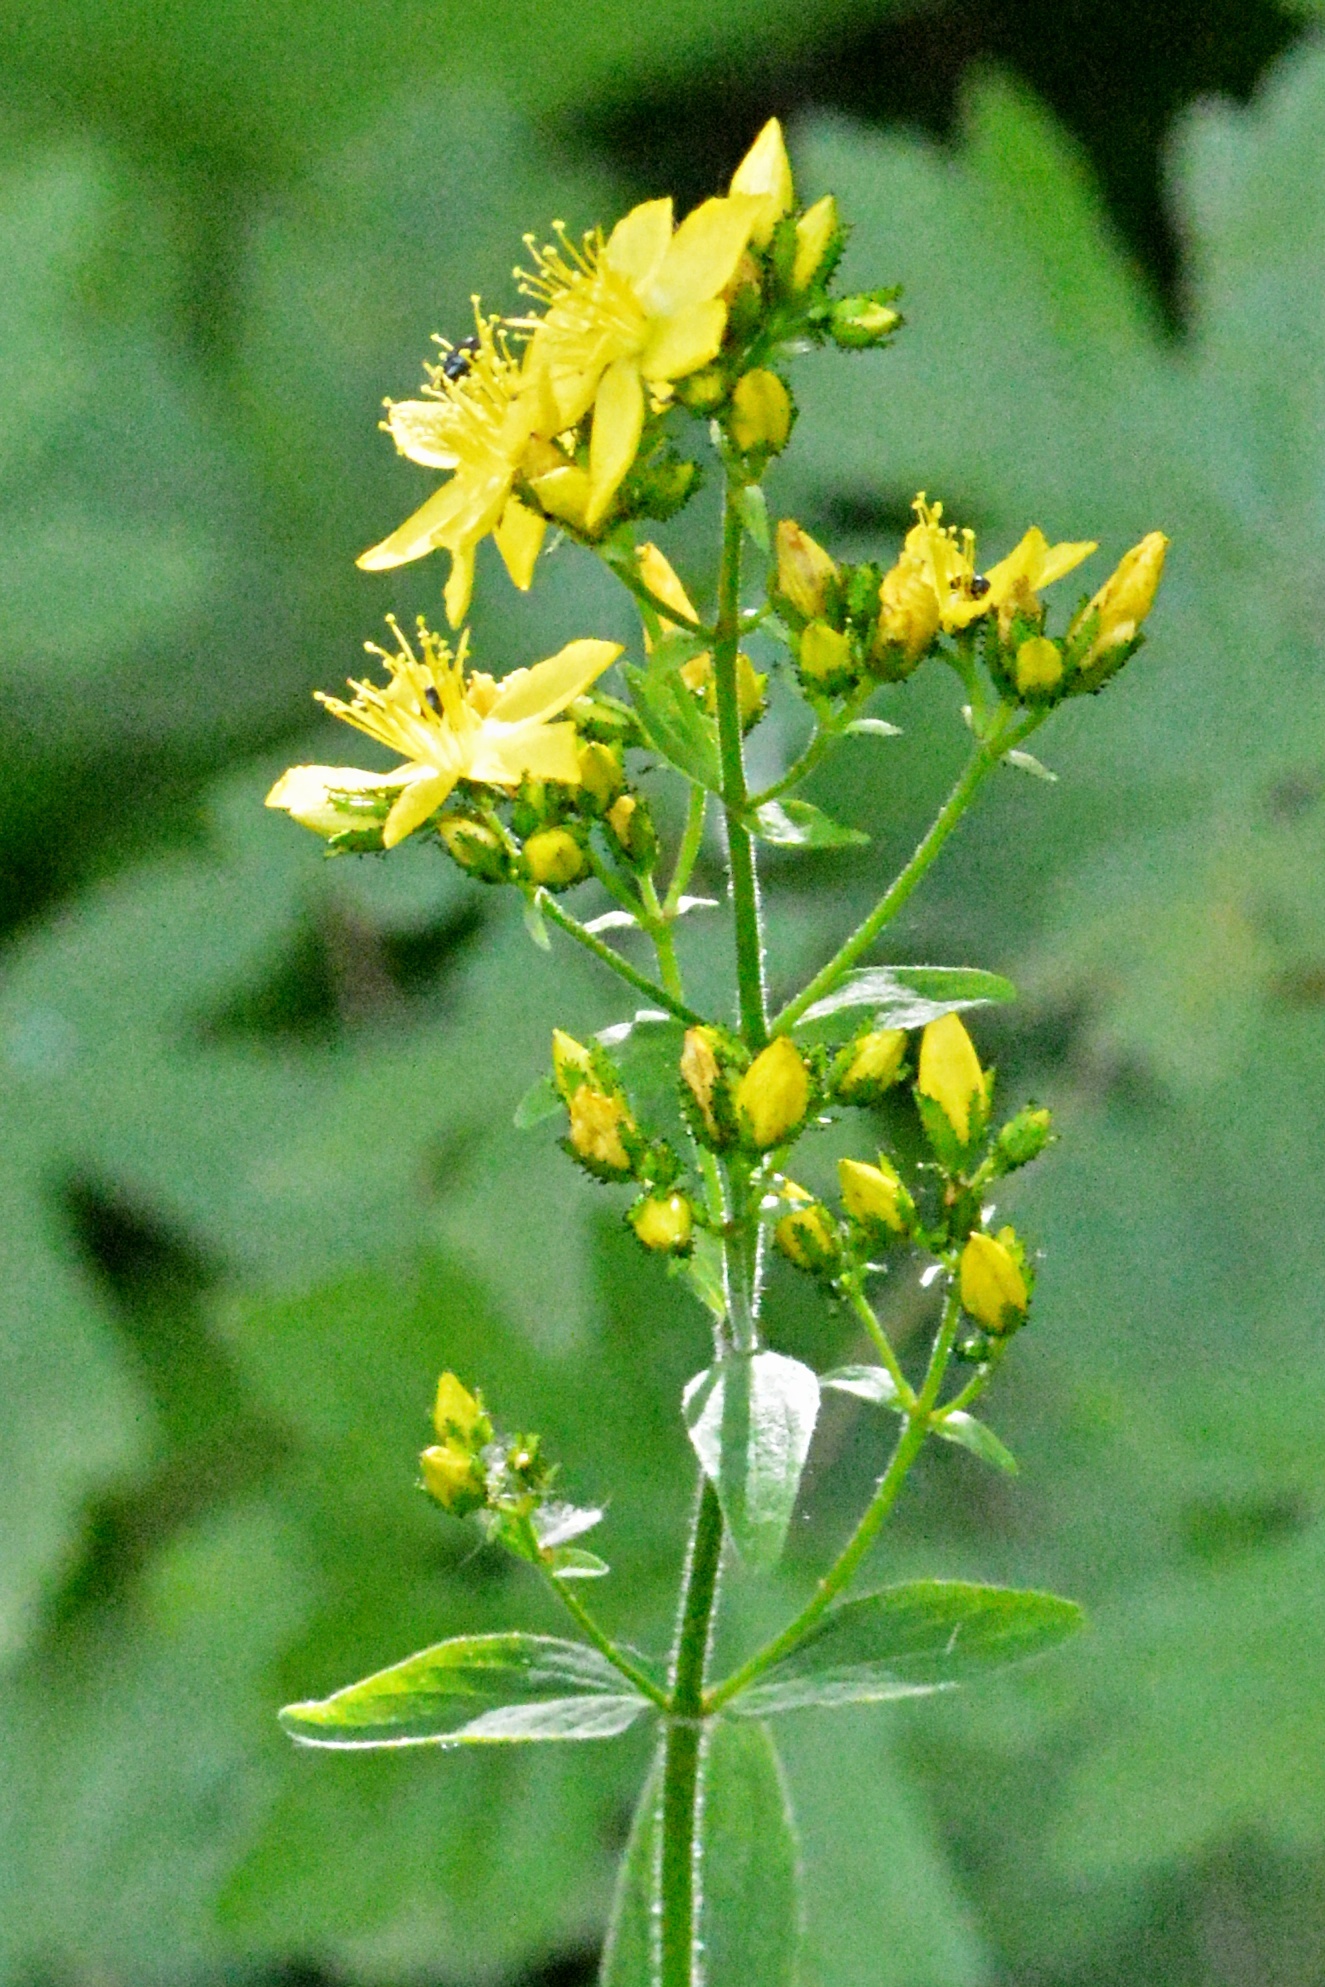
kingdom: Plantae
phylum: Tracheophyta
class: Magnoliopsida
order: Malpighiales
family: Hypericaceae
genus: Hypericum
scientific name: Hypericum hirsutum
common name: Hairy st. john's-wort
